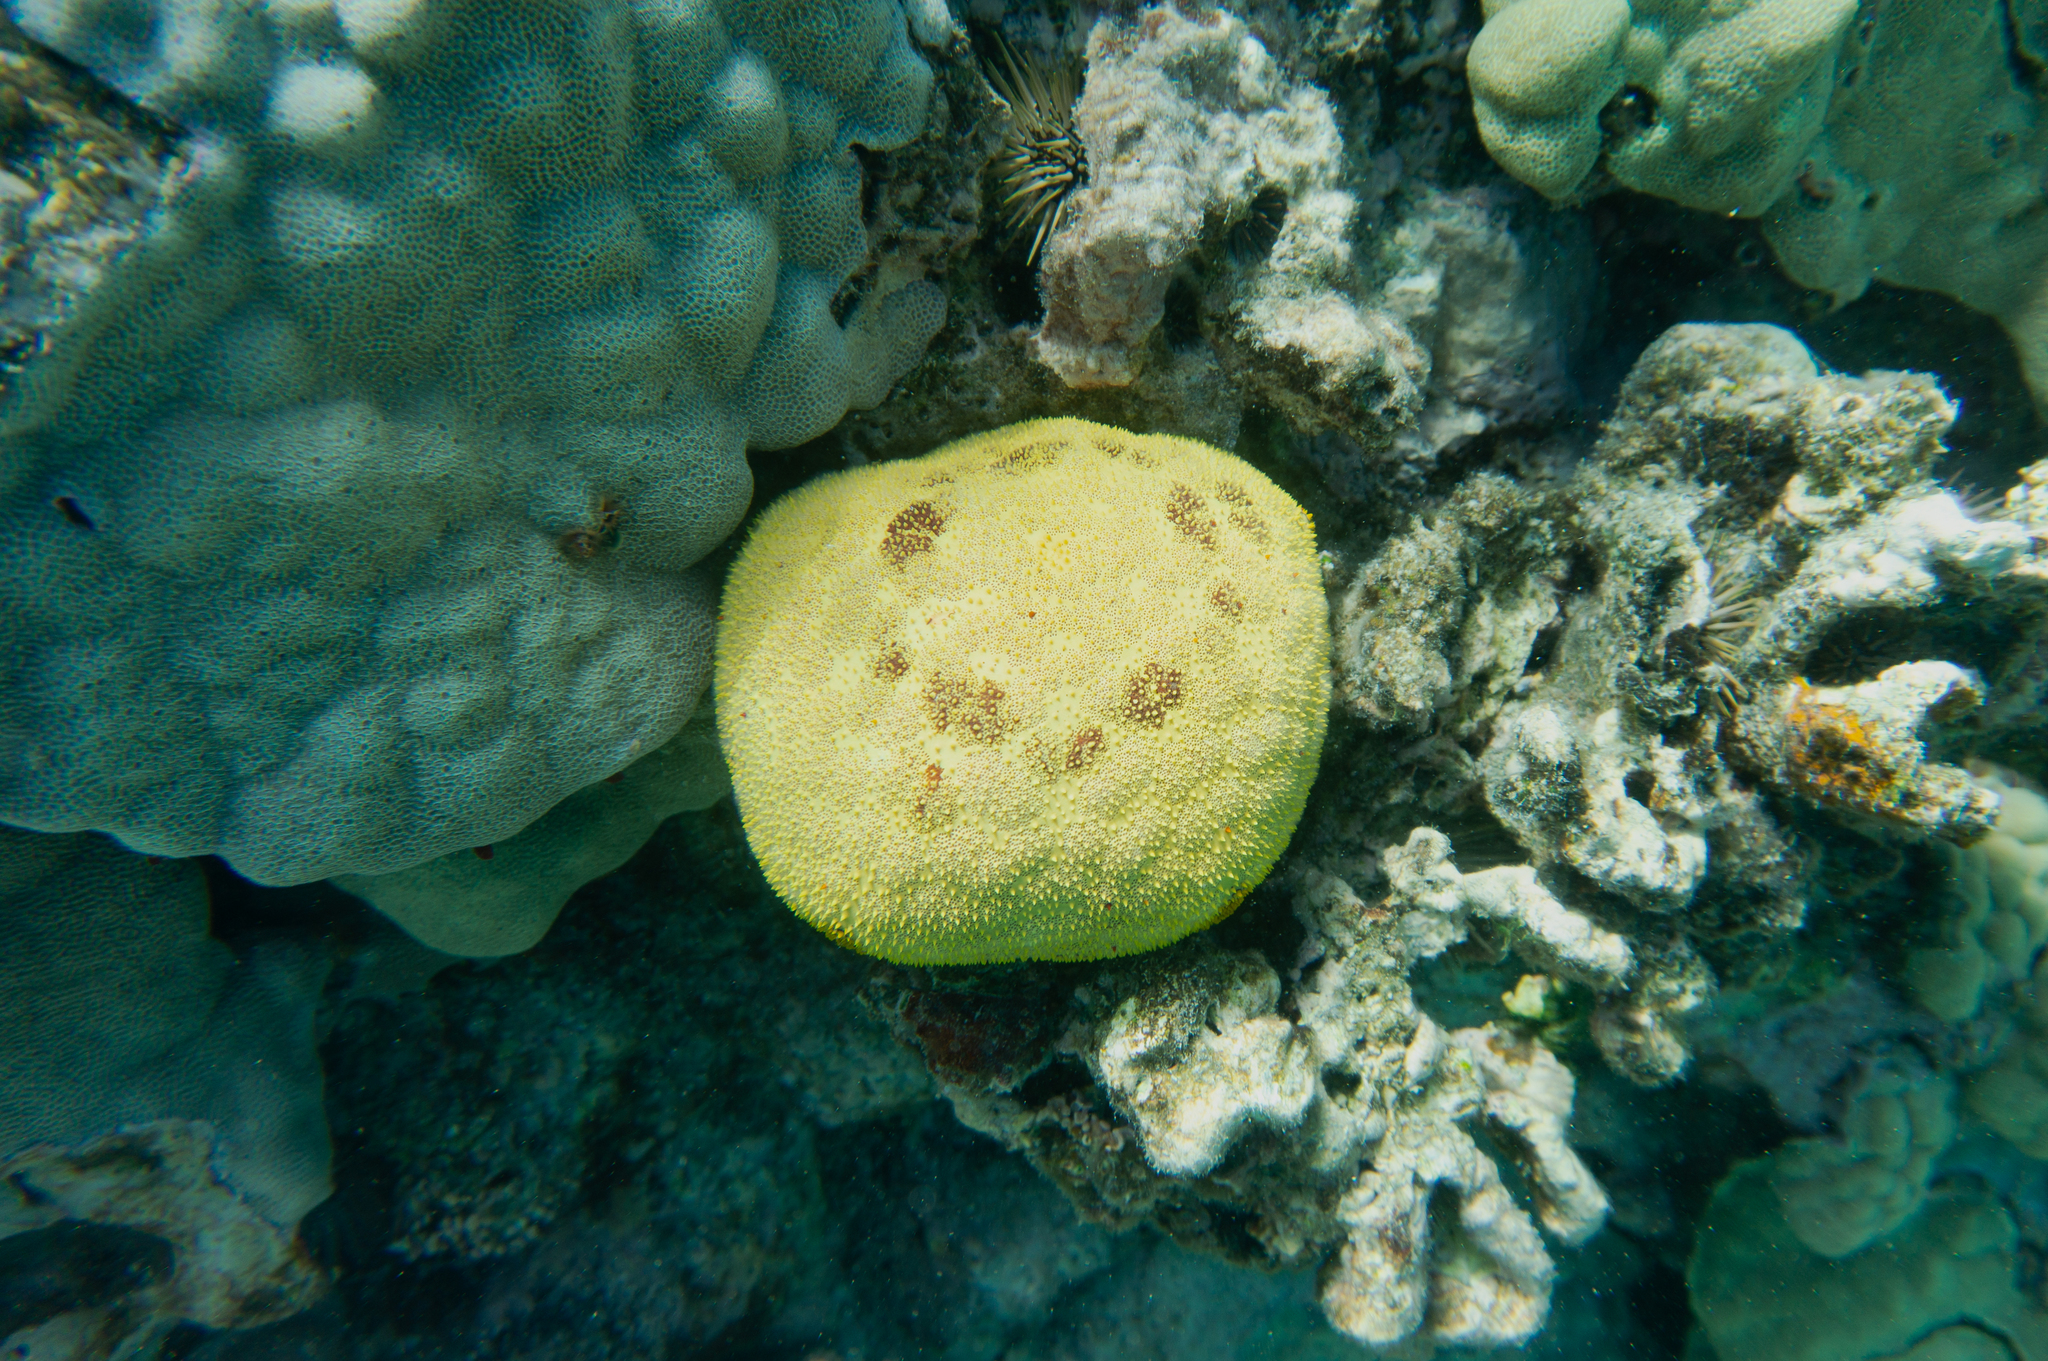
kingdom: Animalia
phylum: Echinodermata
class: Asteroidea
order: Valvatida
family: Oreasteridae
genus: Culcita
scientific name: Culcita novaeguineae
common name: Cushion star
